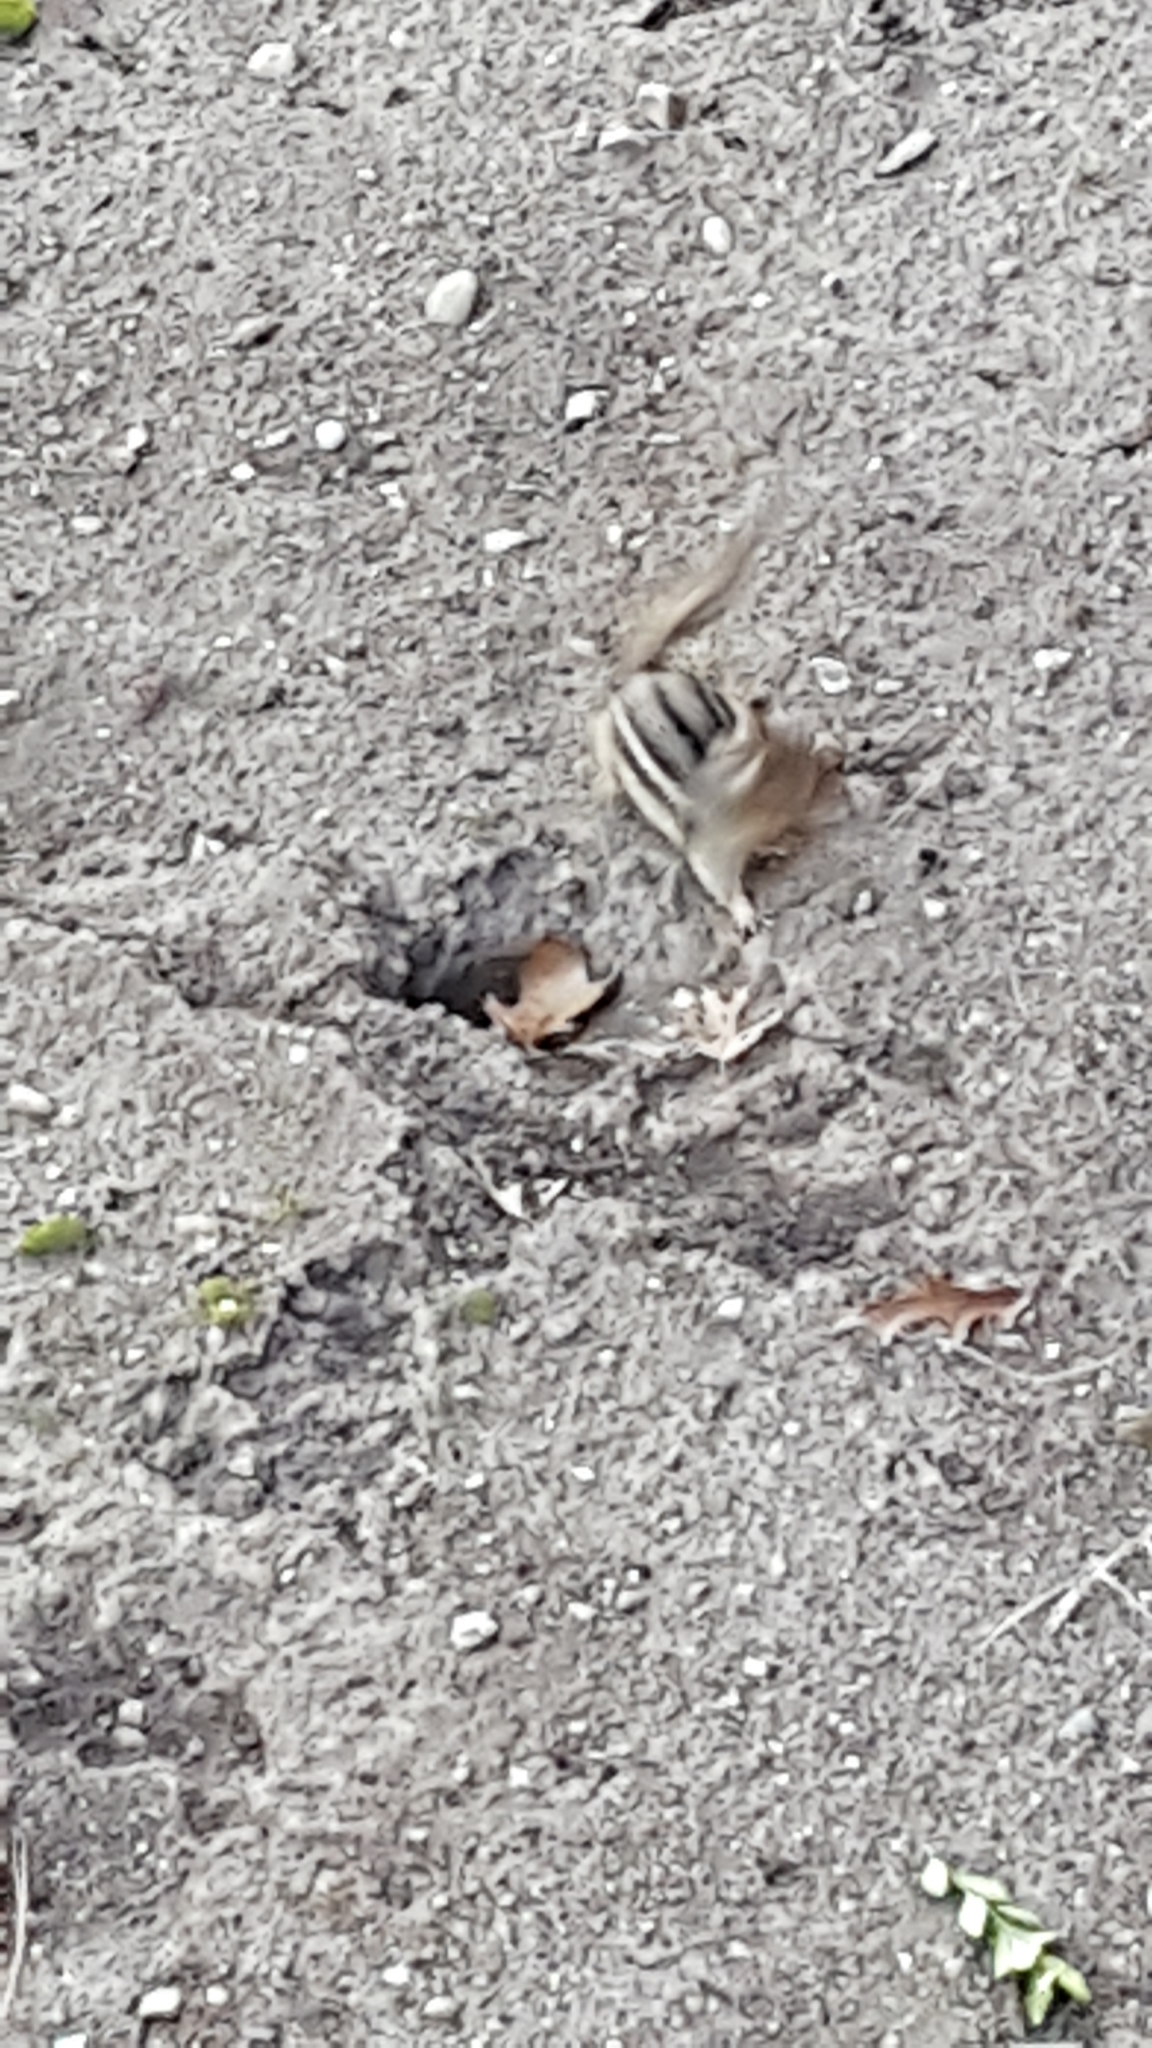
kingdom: Animalia
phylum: Chordata
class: Mammalia
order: Rodentia
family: Sciuridae
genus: Tamias
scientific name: Tamias striatus
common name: Eastern chipmunk
